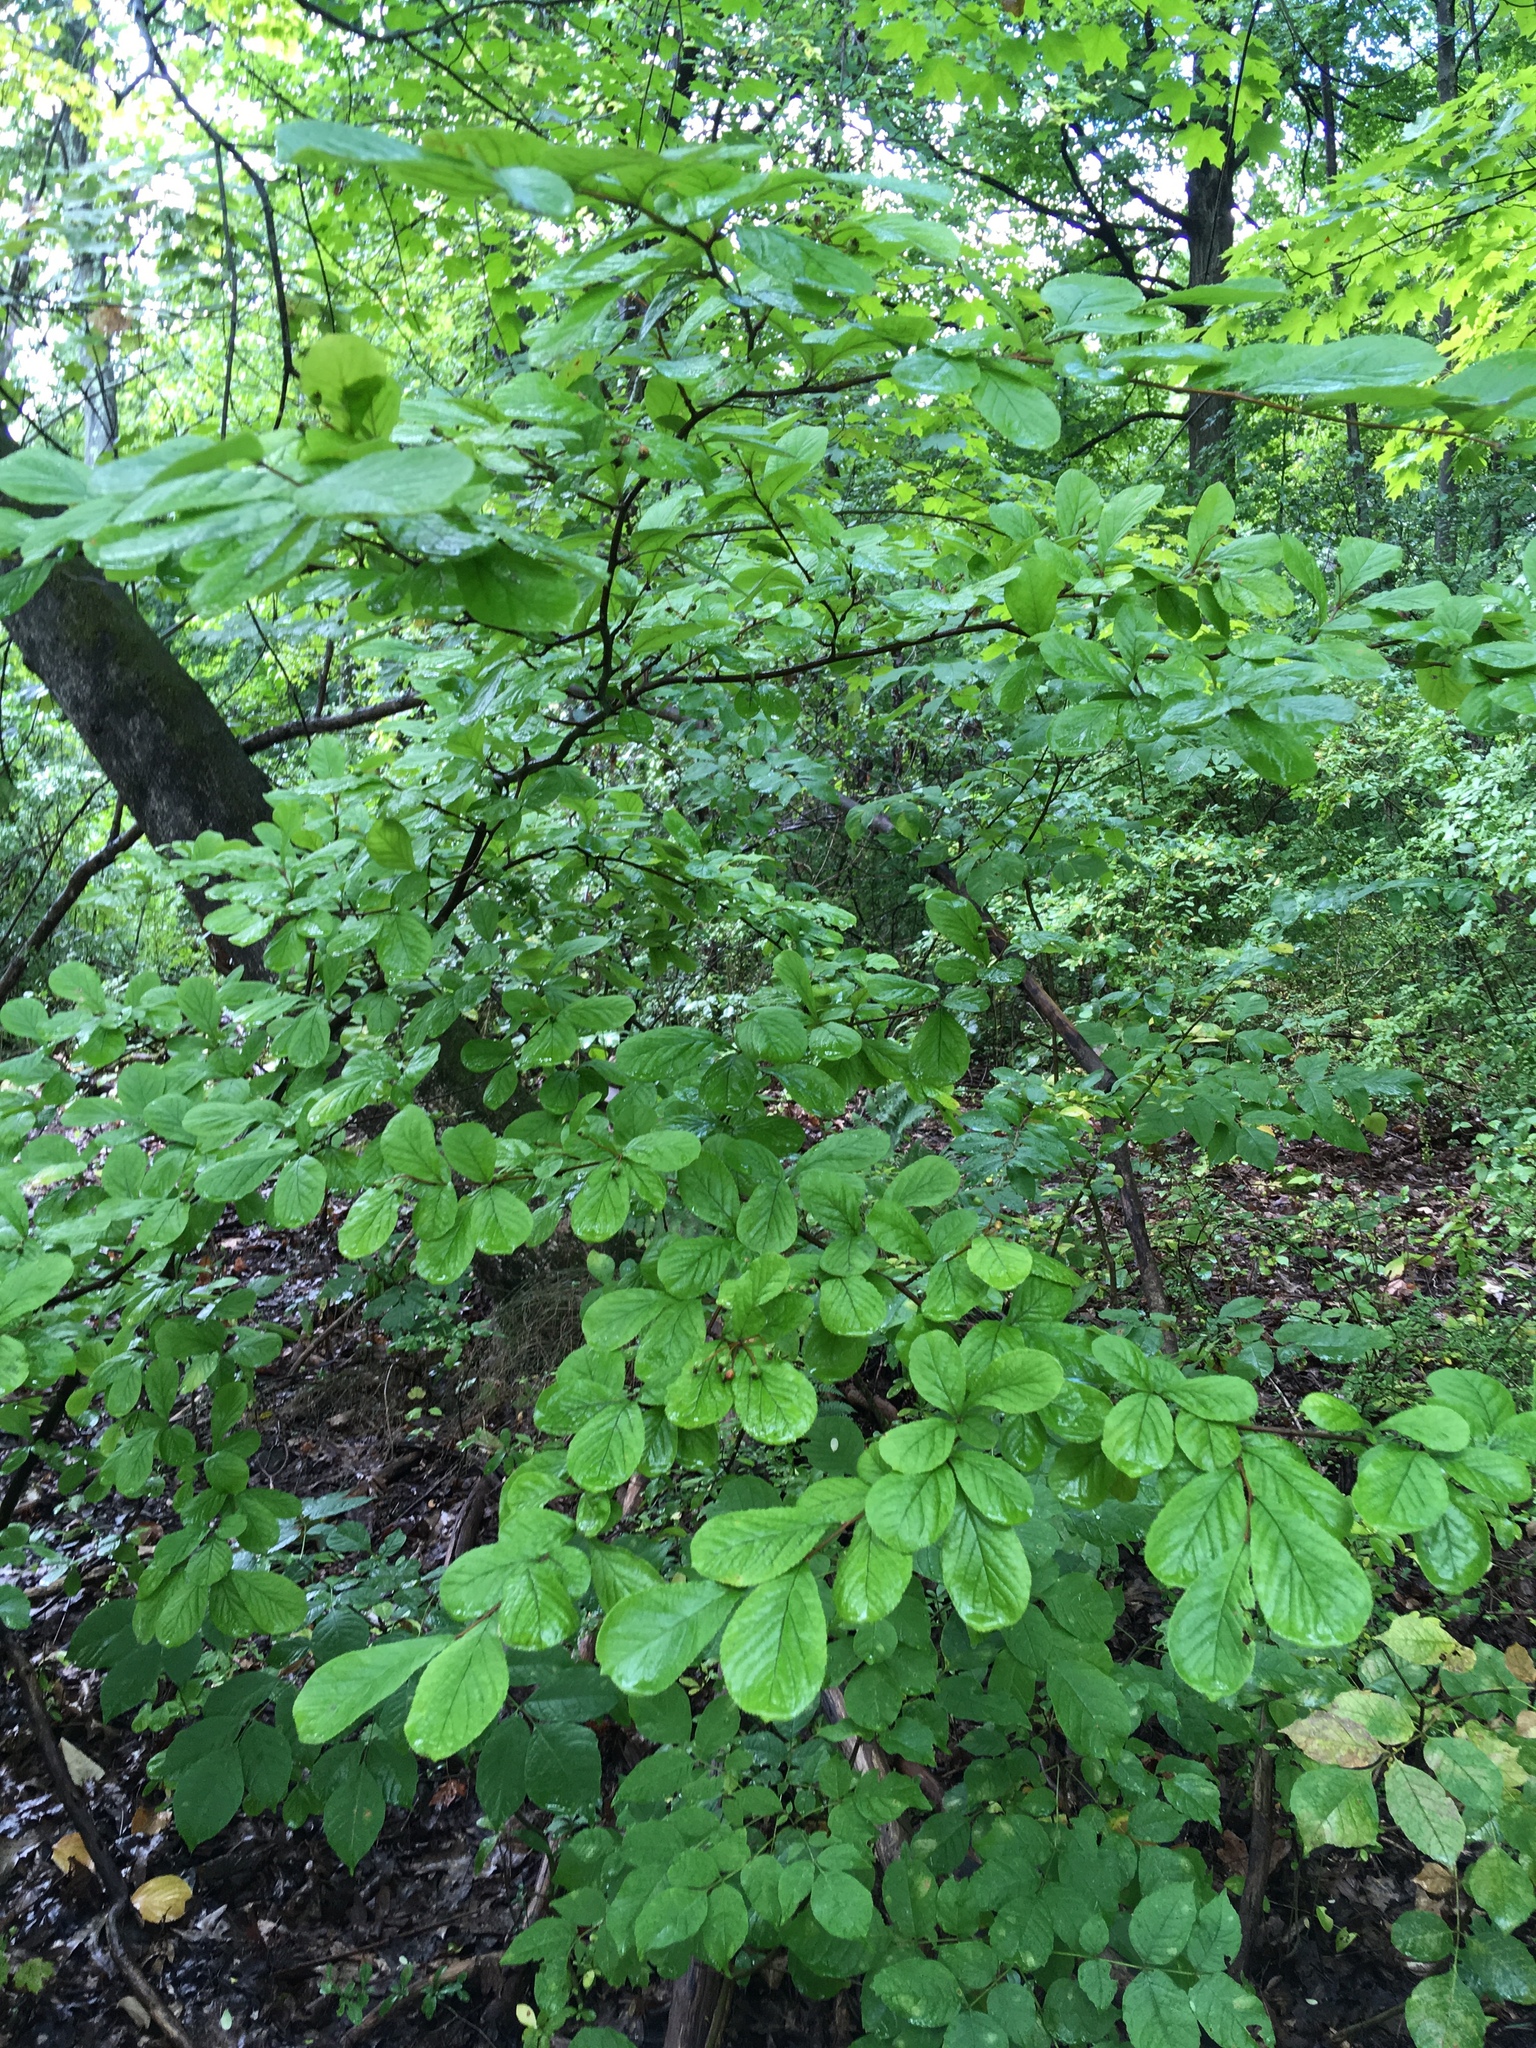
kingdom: Plantae
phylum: Tracheophyta
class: Magnoliopsida
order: Rosales
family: Rosaceae
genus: Pourthiaea
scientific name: Pourthiaea villosa
